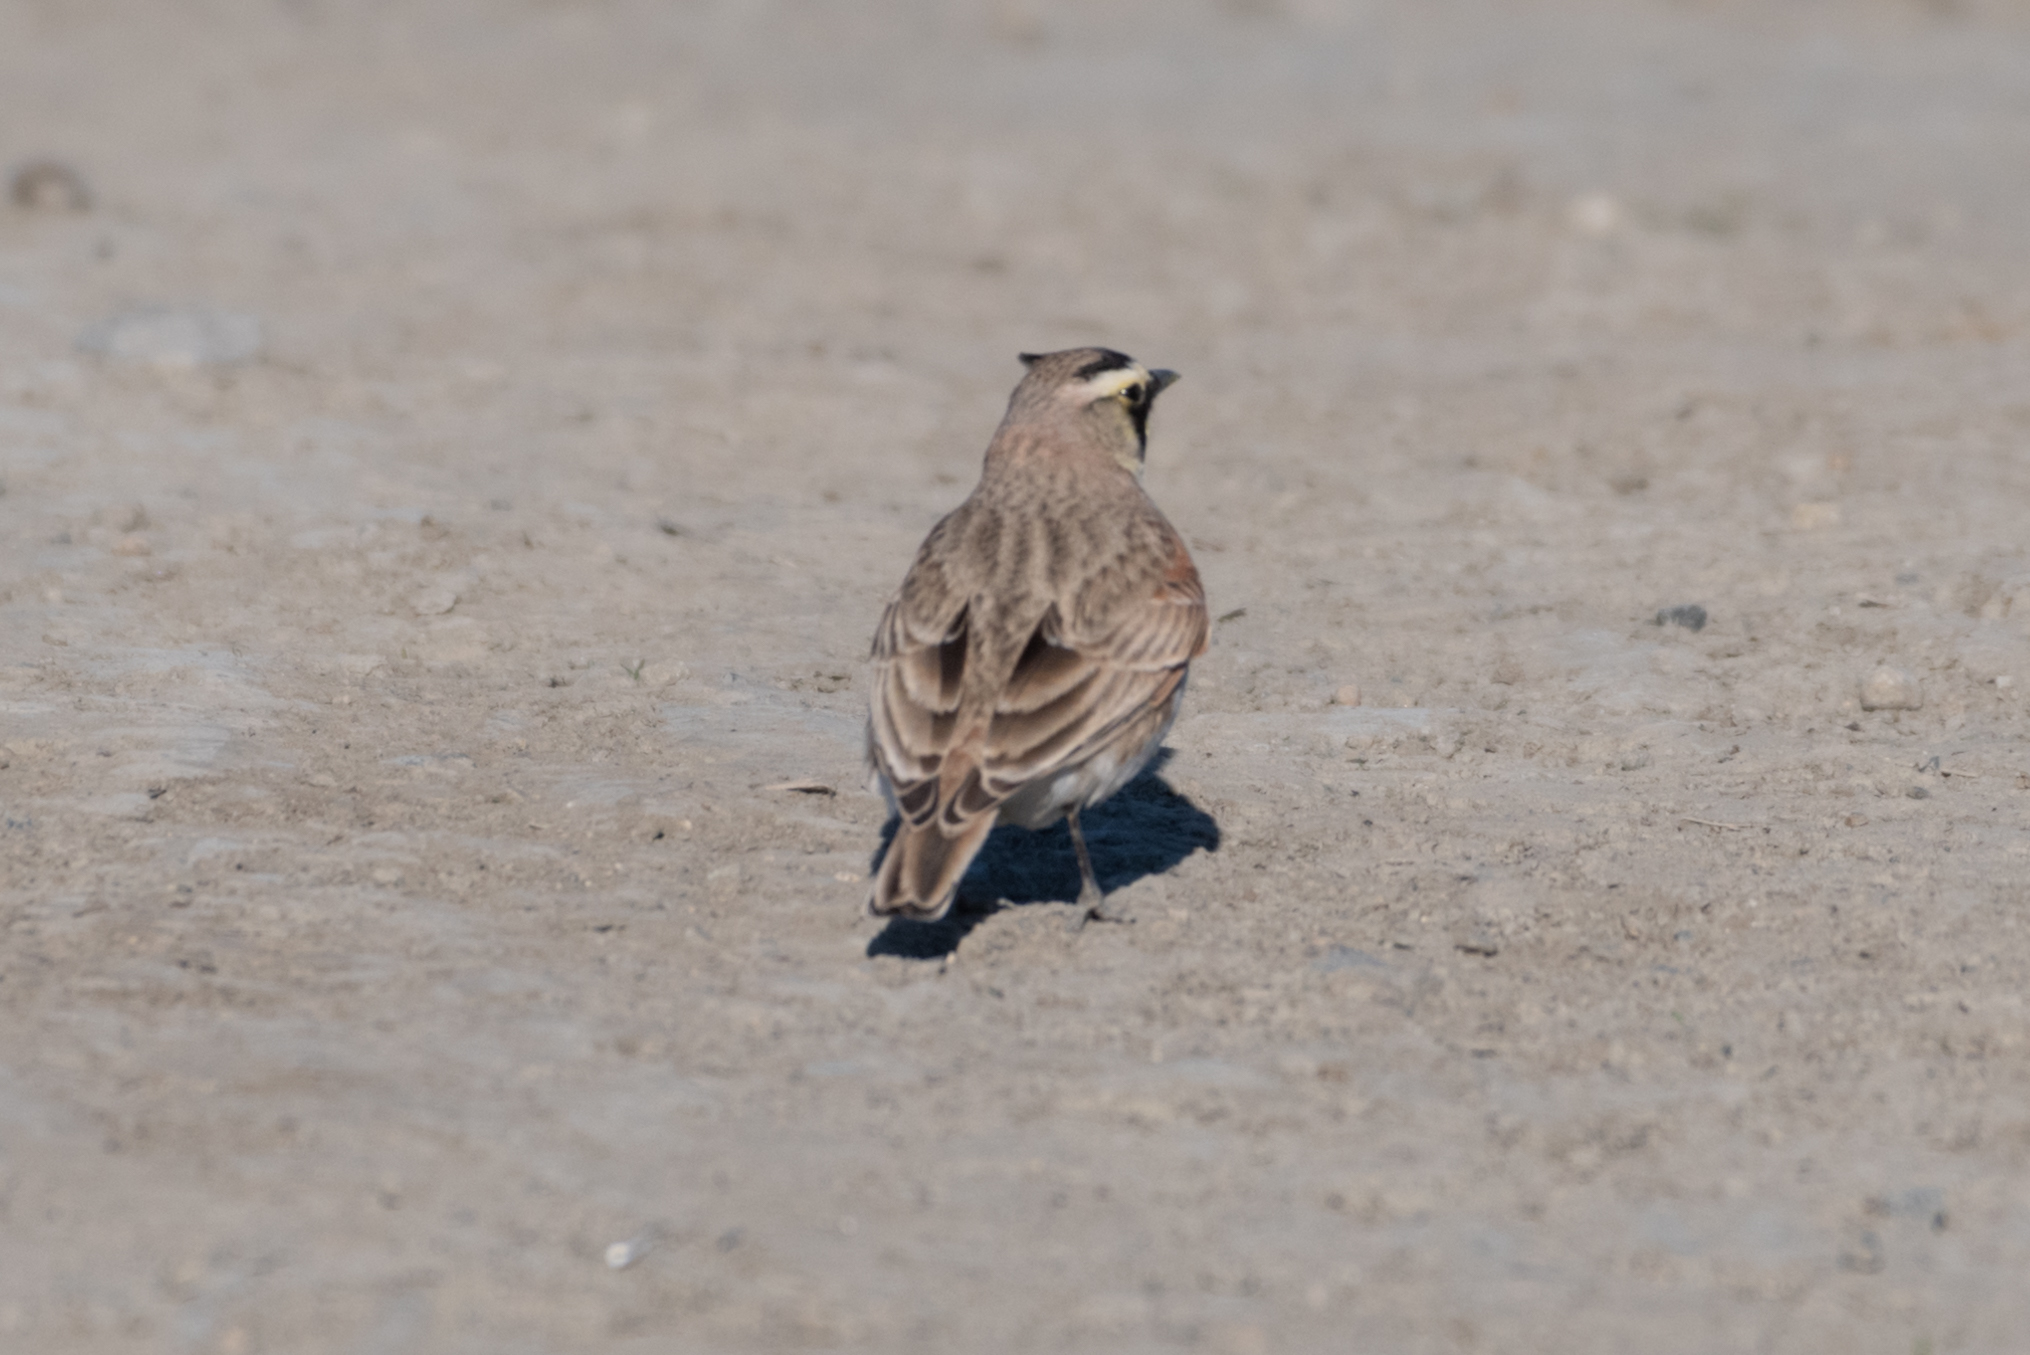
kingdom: Animalia
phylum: Chordata
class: Aves
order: Passeriformes
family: Alaudidae
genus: Eremophila
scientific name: Eremophila alpestris
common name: Horned lark
